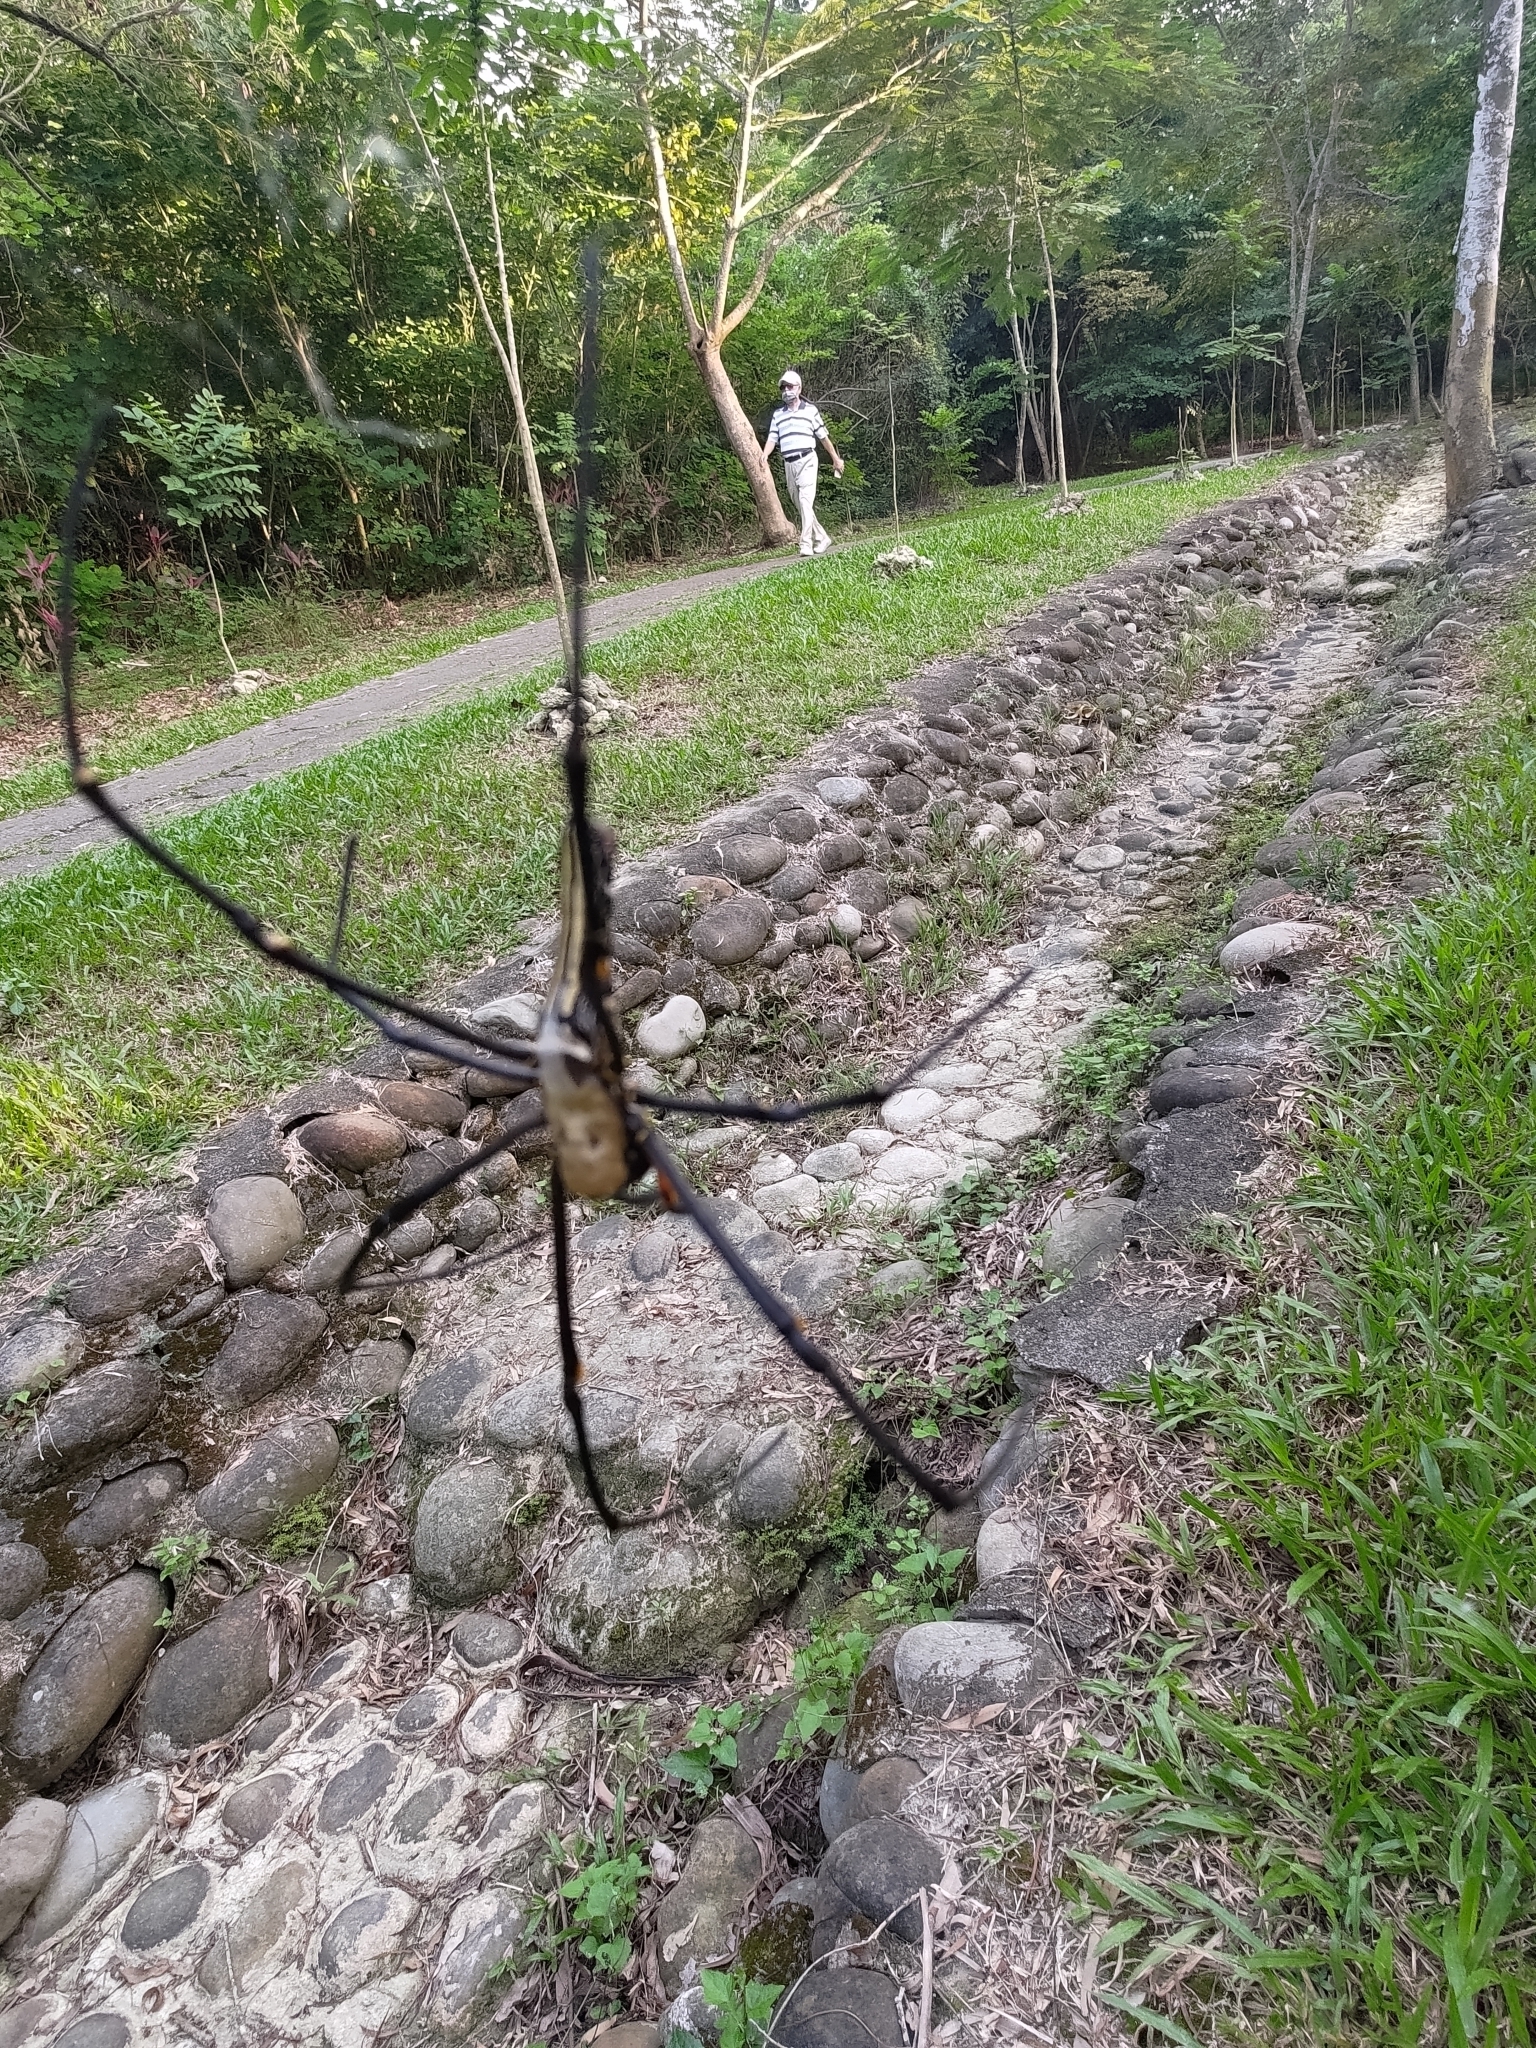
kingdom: Animalia
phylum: Arthropoda
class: Arachnida
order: Araneae
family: Araneidae
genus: Nephila
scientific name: Nephila pilipes
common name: Giant golden orb weaver
